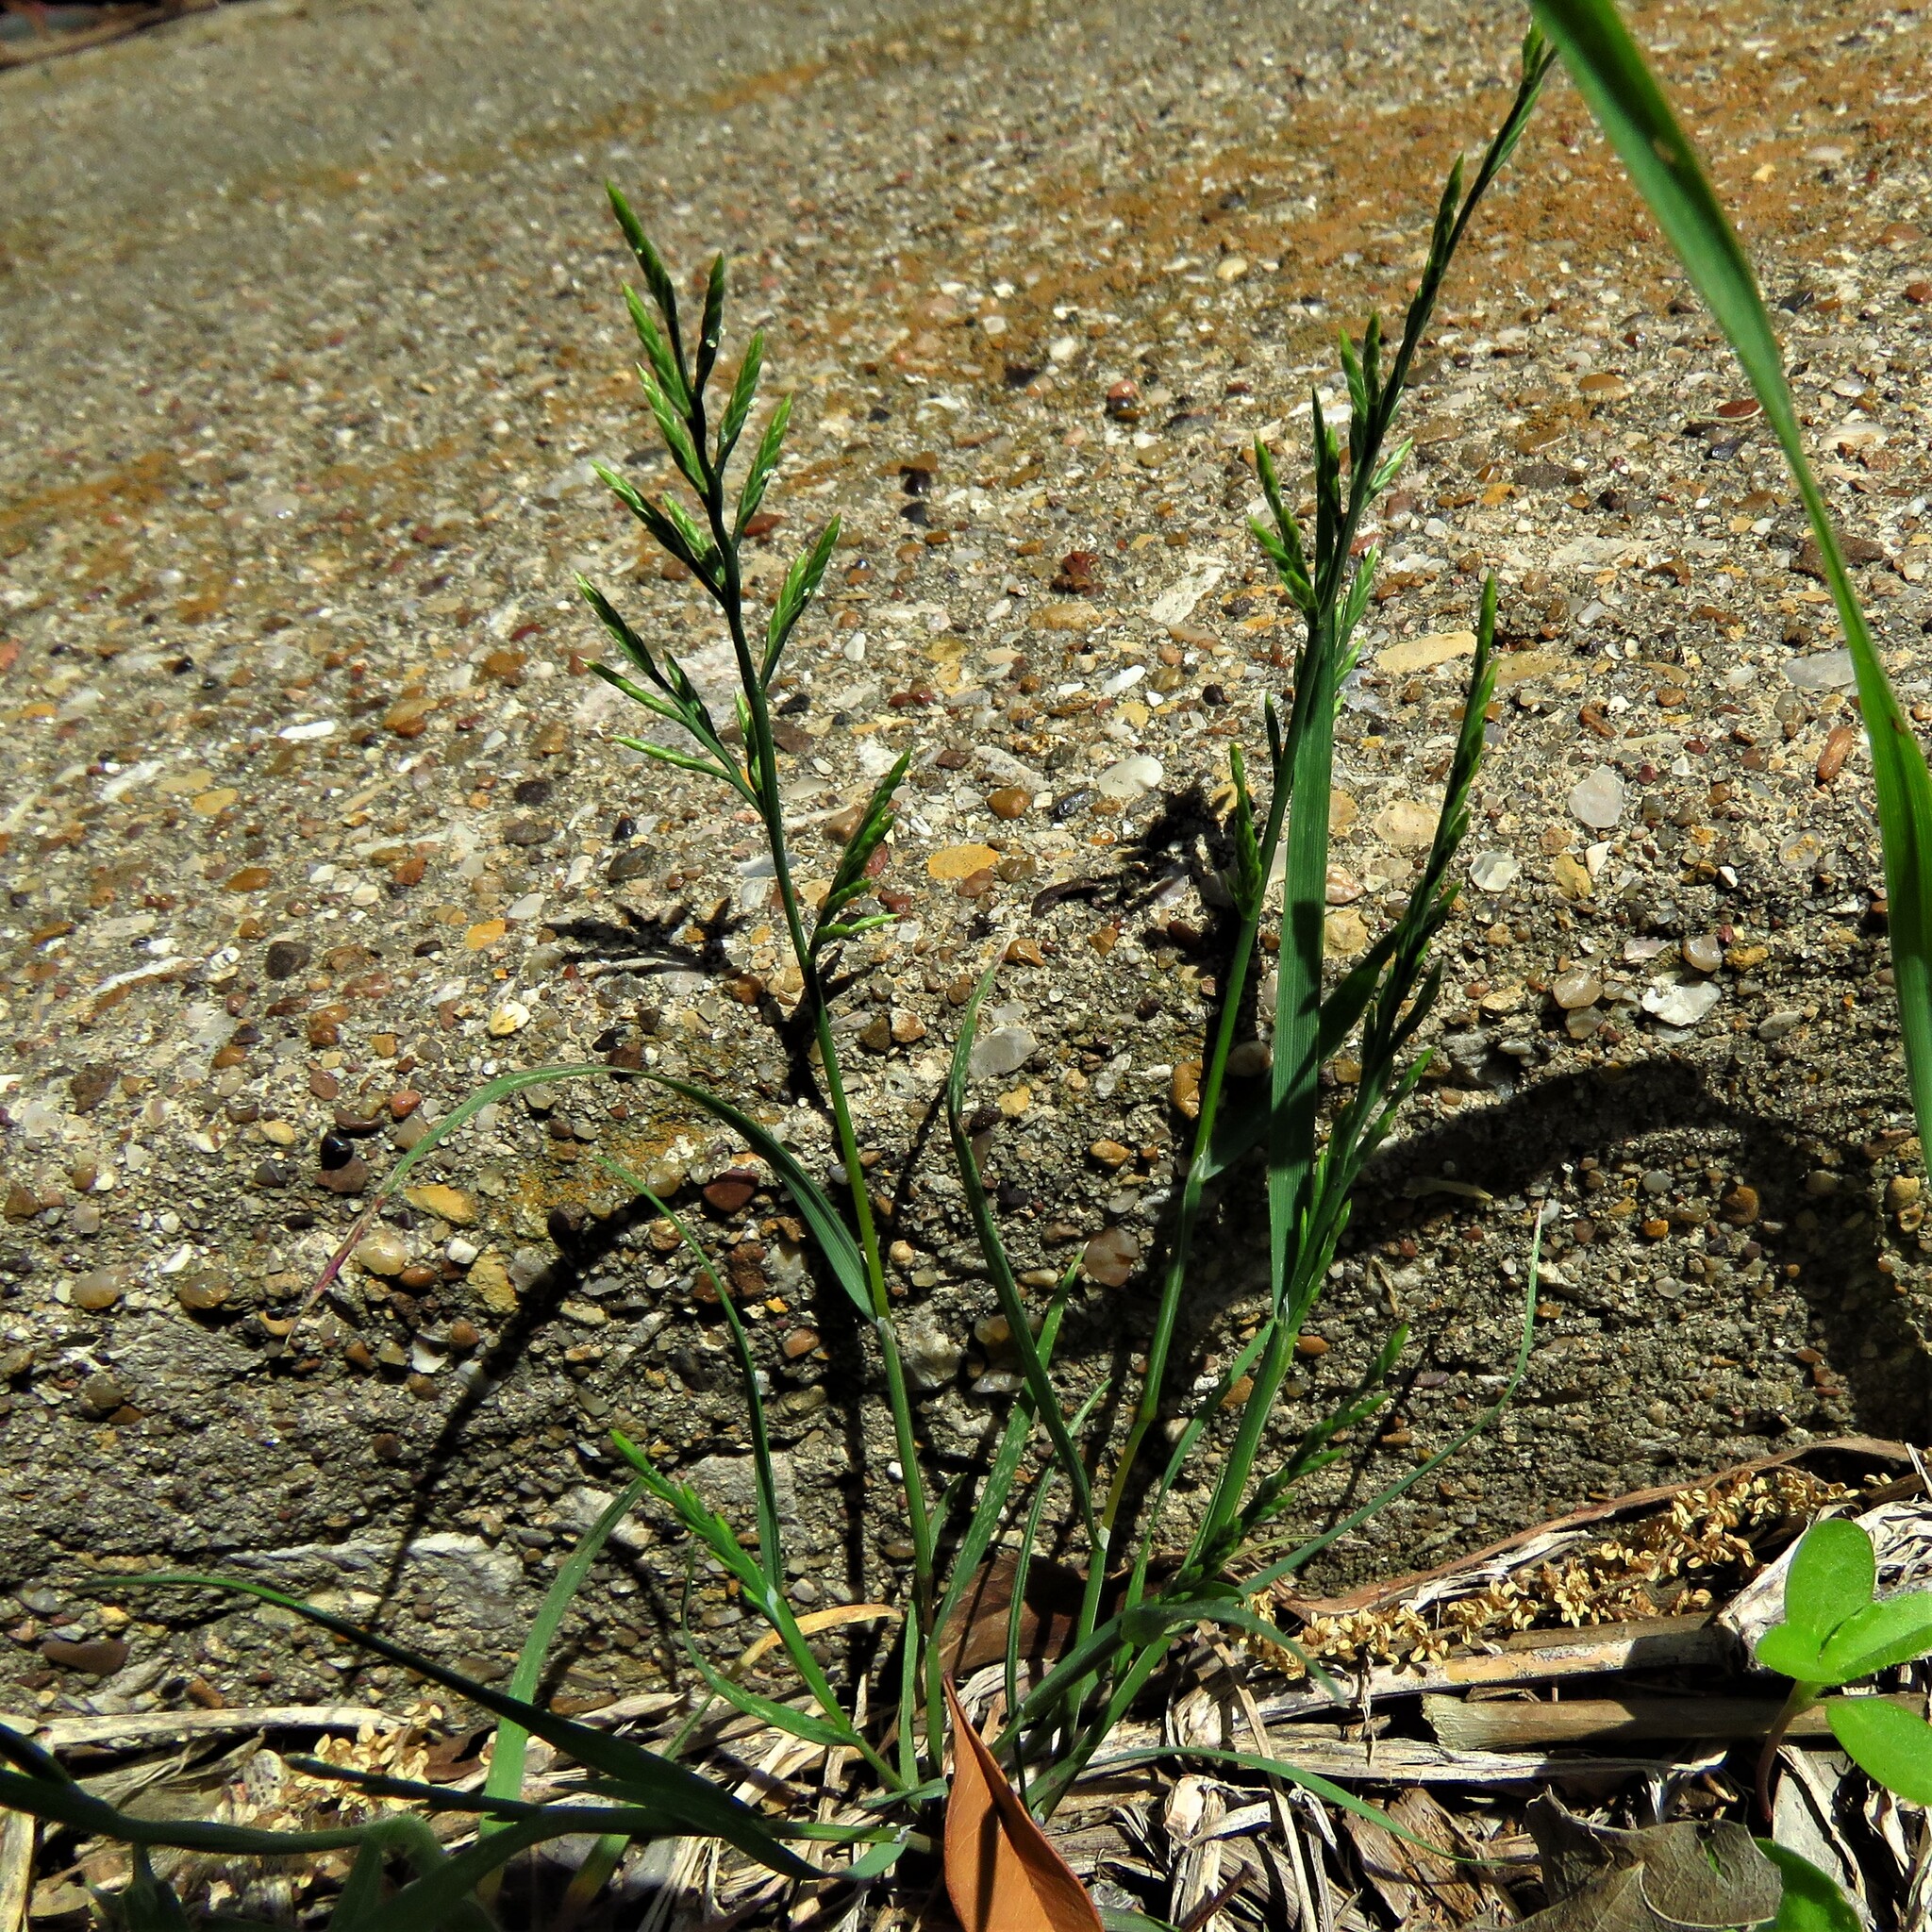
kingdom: Plantae
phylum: Tracheophyta
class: Liliopsida
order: Poales
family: Poaceae
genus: Catapodium
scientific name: Catapodium rigidum
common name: Fern-grass
